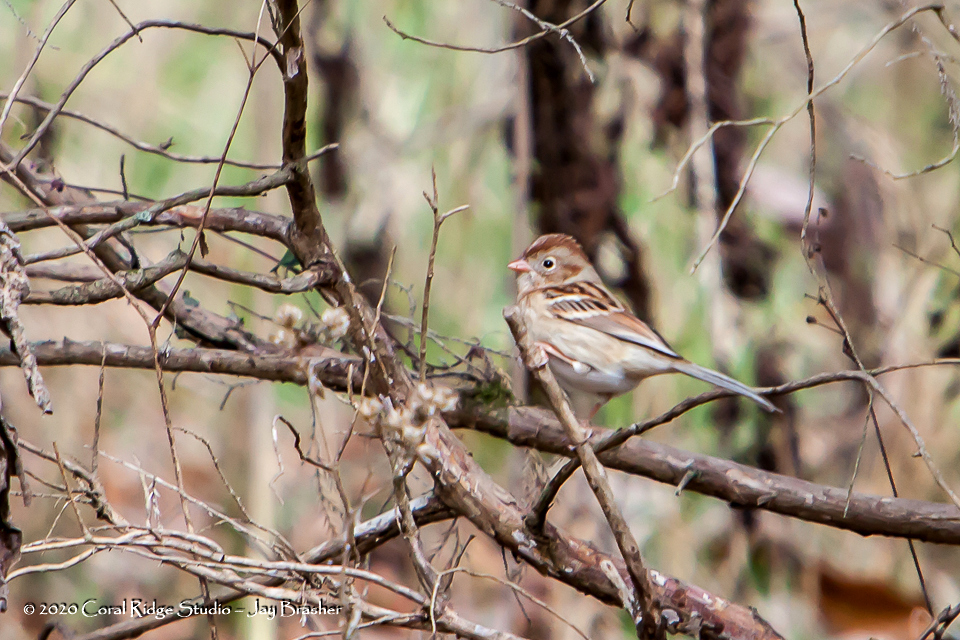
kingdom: Animalia
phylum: Chordata
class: Aves
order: Passeriformes
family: Passerellidae
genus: Spizella
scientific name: Spizella pusilla
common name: Field sparrow
